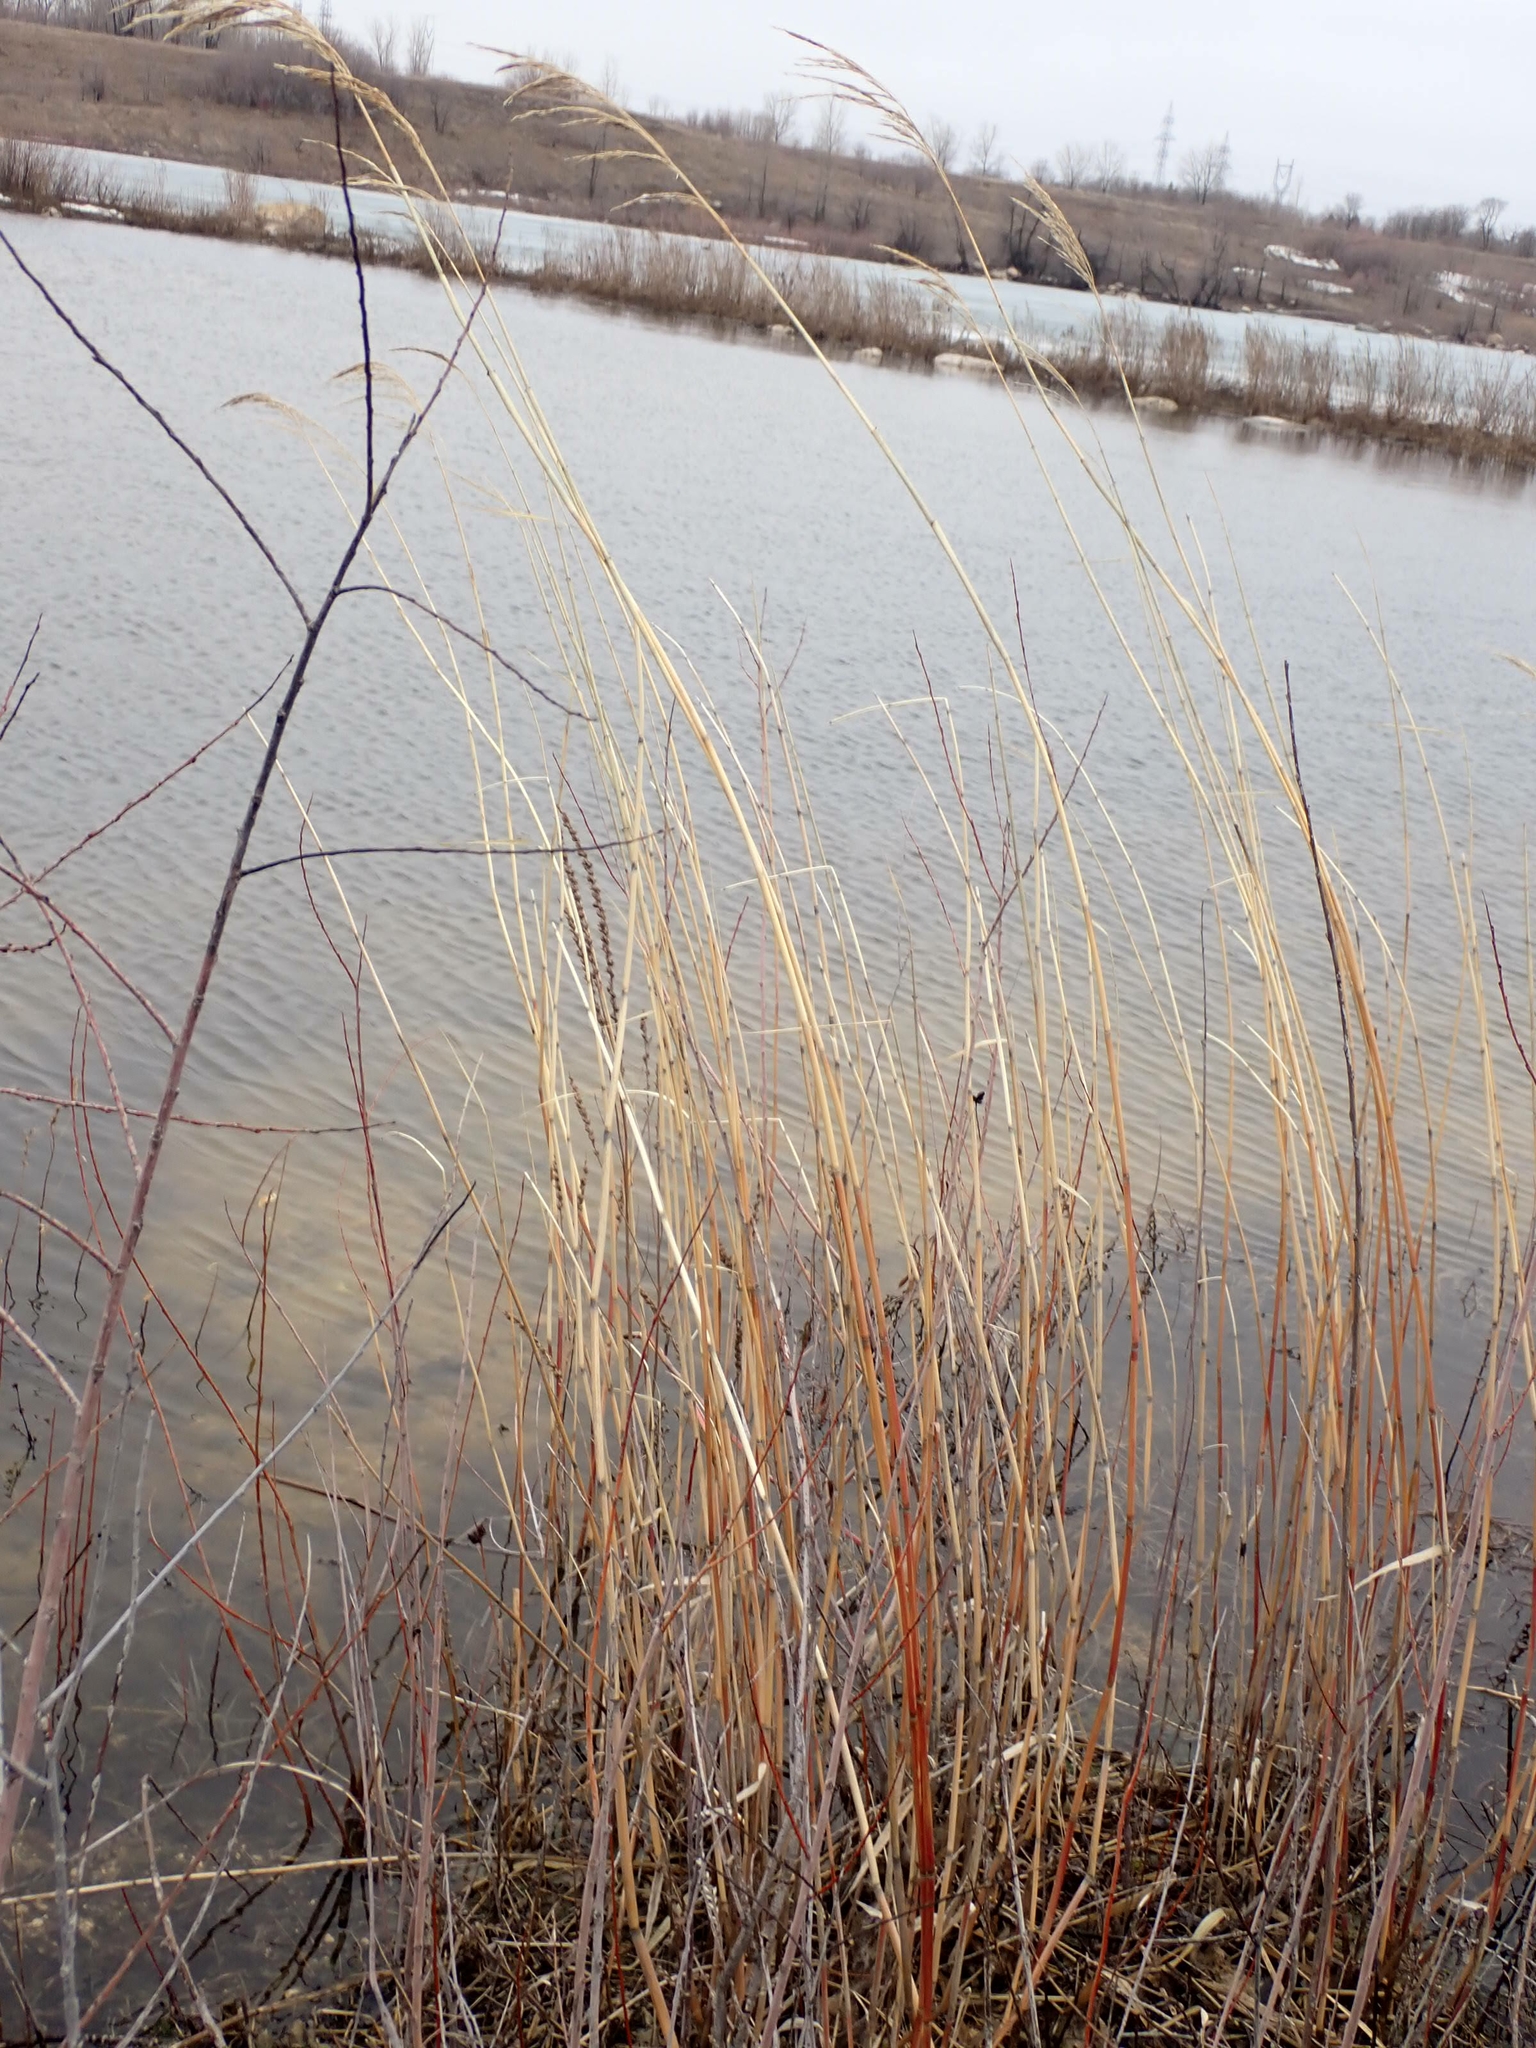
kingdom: Plantae
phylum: Tracheophyta
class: Liliopsida
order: Poales
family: Poaceae
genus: Phragmites
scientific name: Phragmites australis
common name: Common reed
